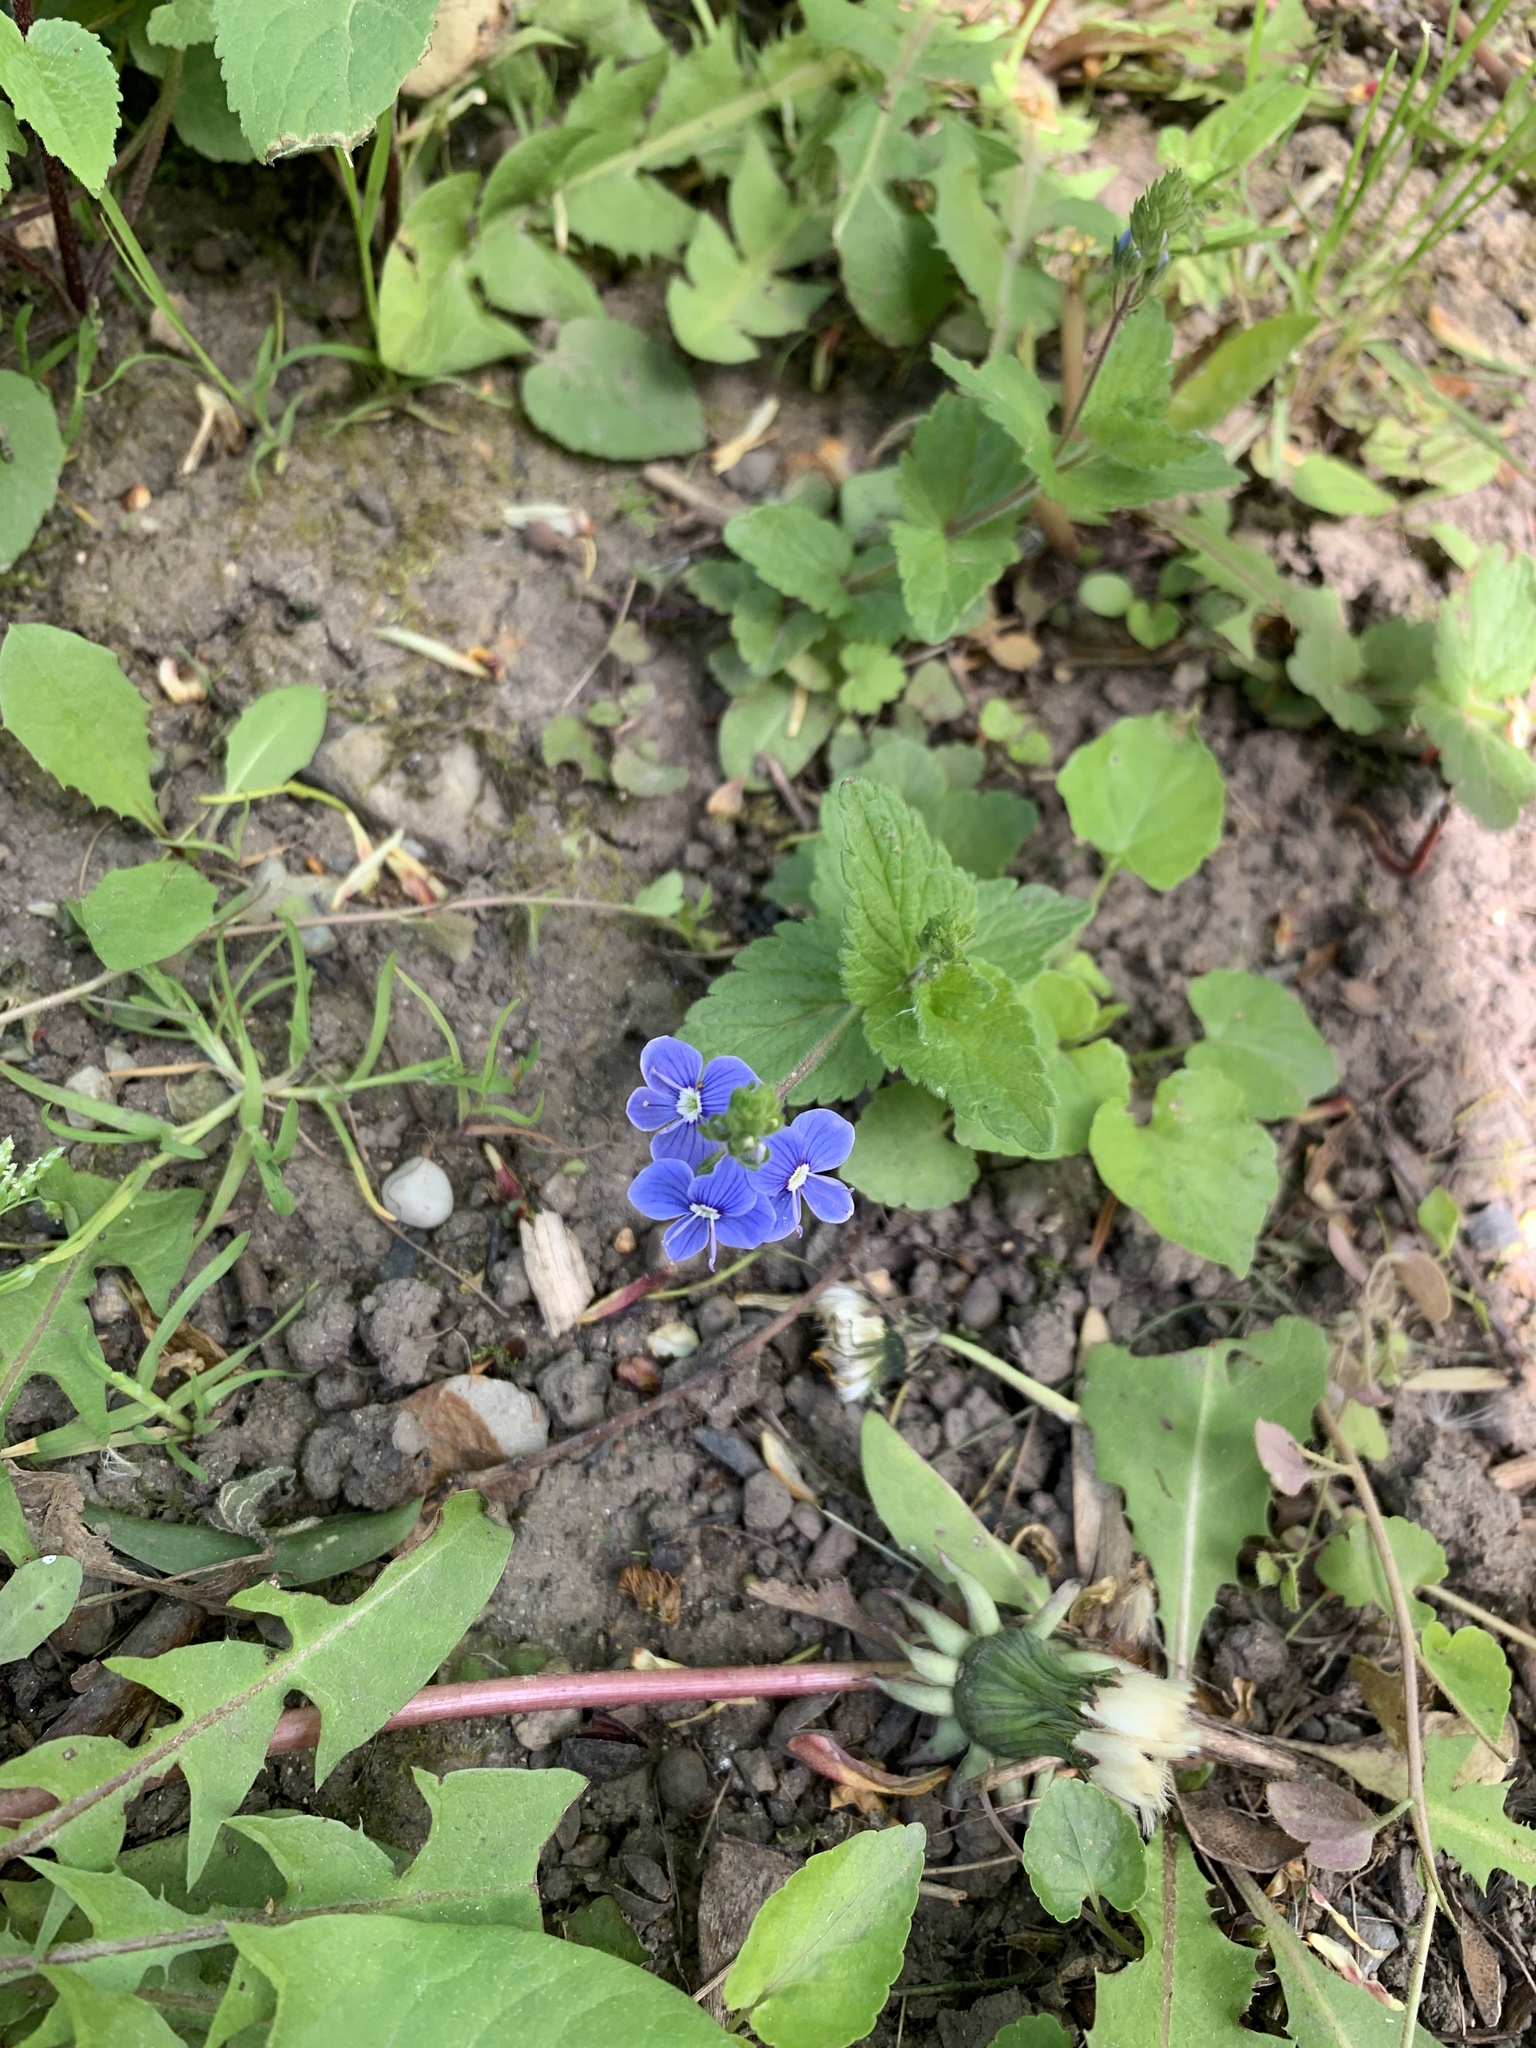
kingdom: Plantae
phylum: Tracheophyta
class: Magnoliopsida
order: Lamiales
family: Plantaginaceae
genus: Veronica
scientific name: Veronica chamaedrys
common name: Germander speedwell
